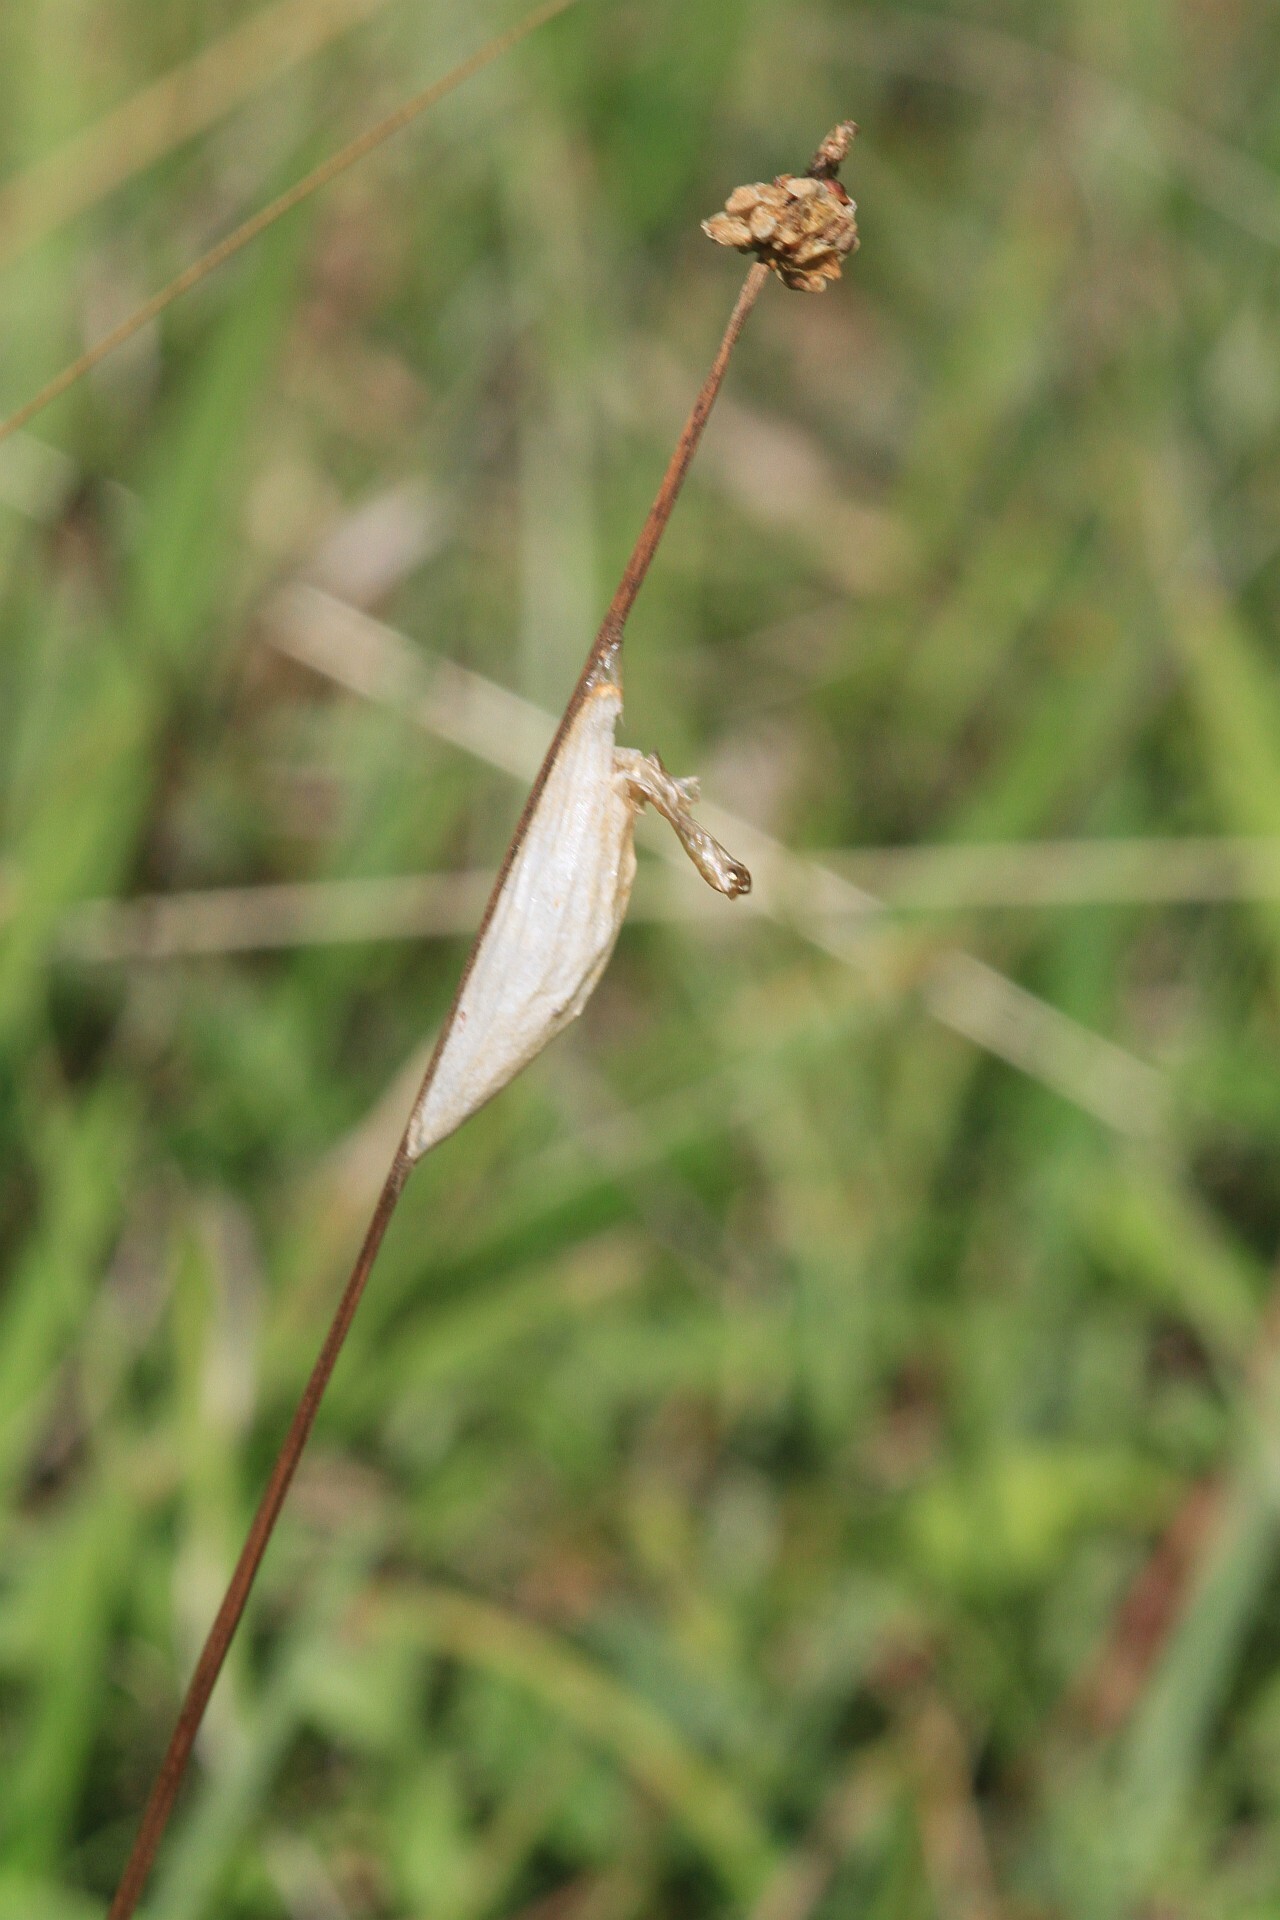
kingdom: Animalia
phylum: Arthropoda
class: Insecta
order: Lepidoptera
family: Zygaenidae
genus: Zygaena
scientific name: Zygaena filipendulae
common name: Six-spot burnet
